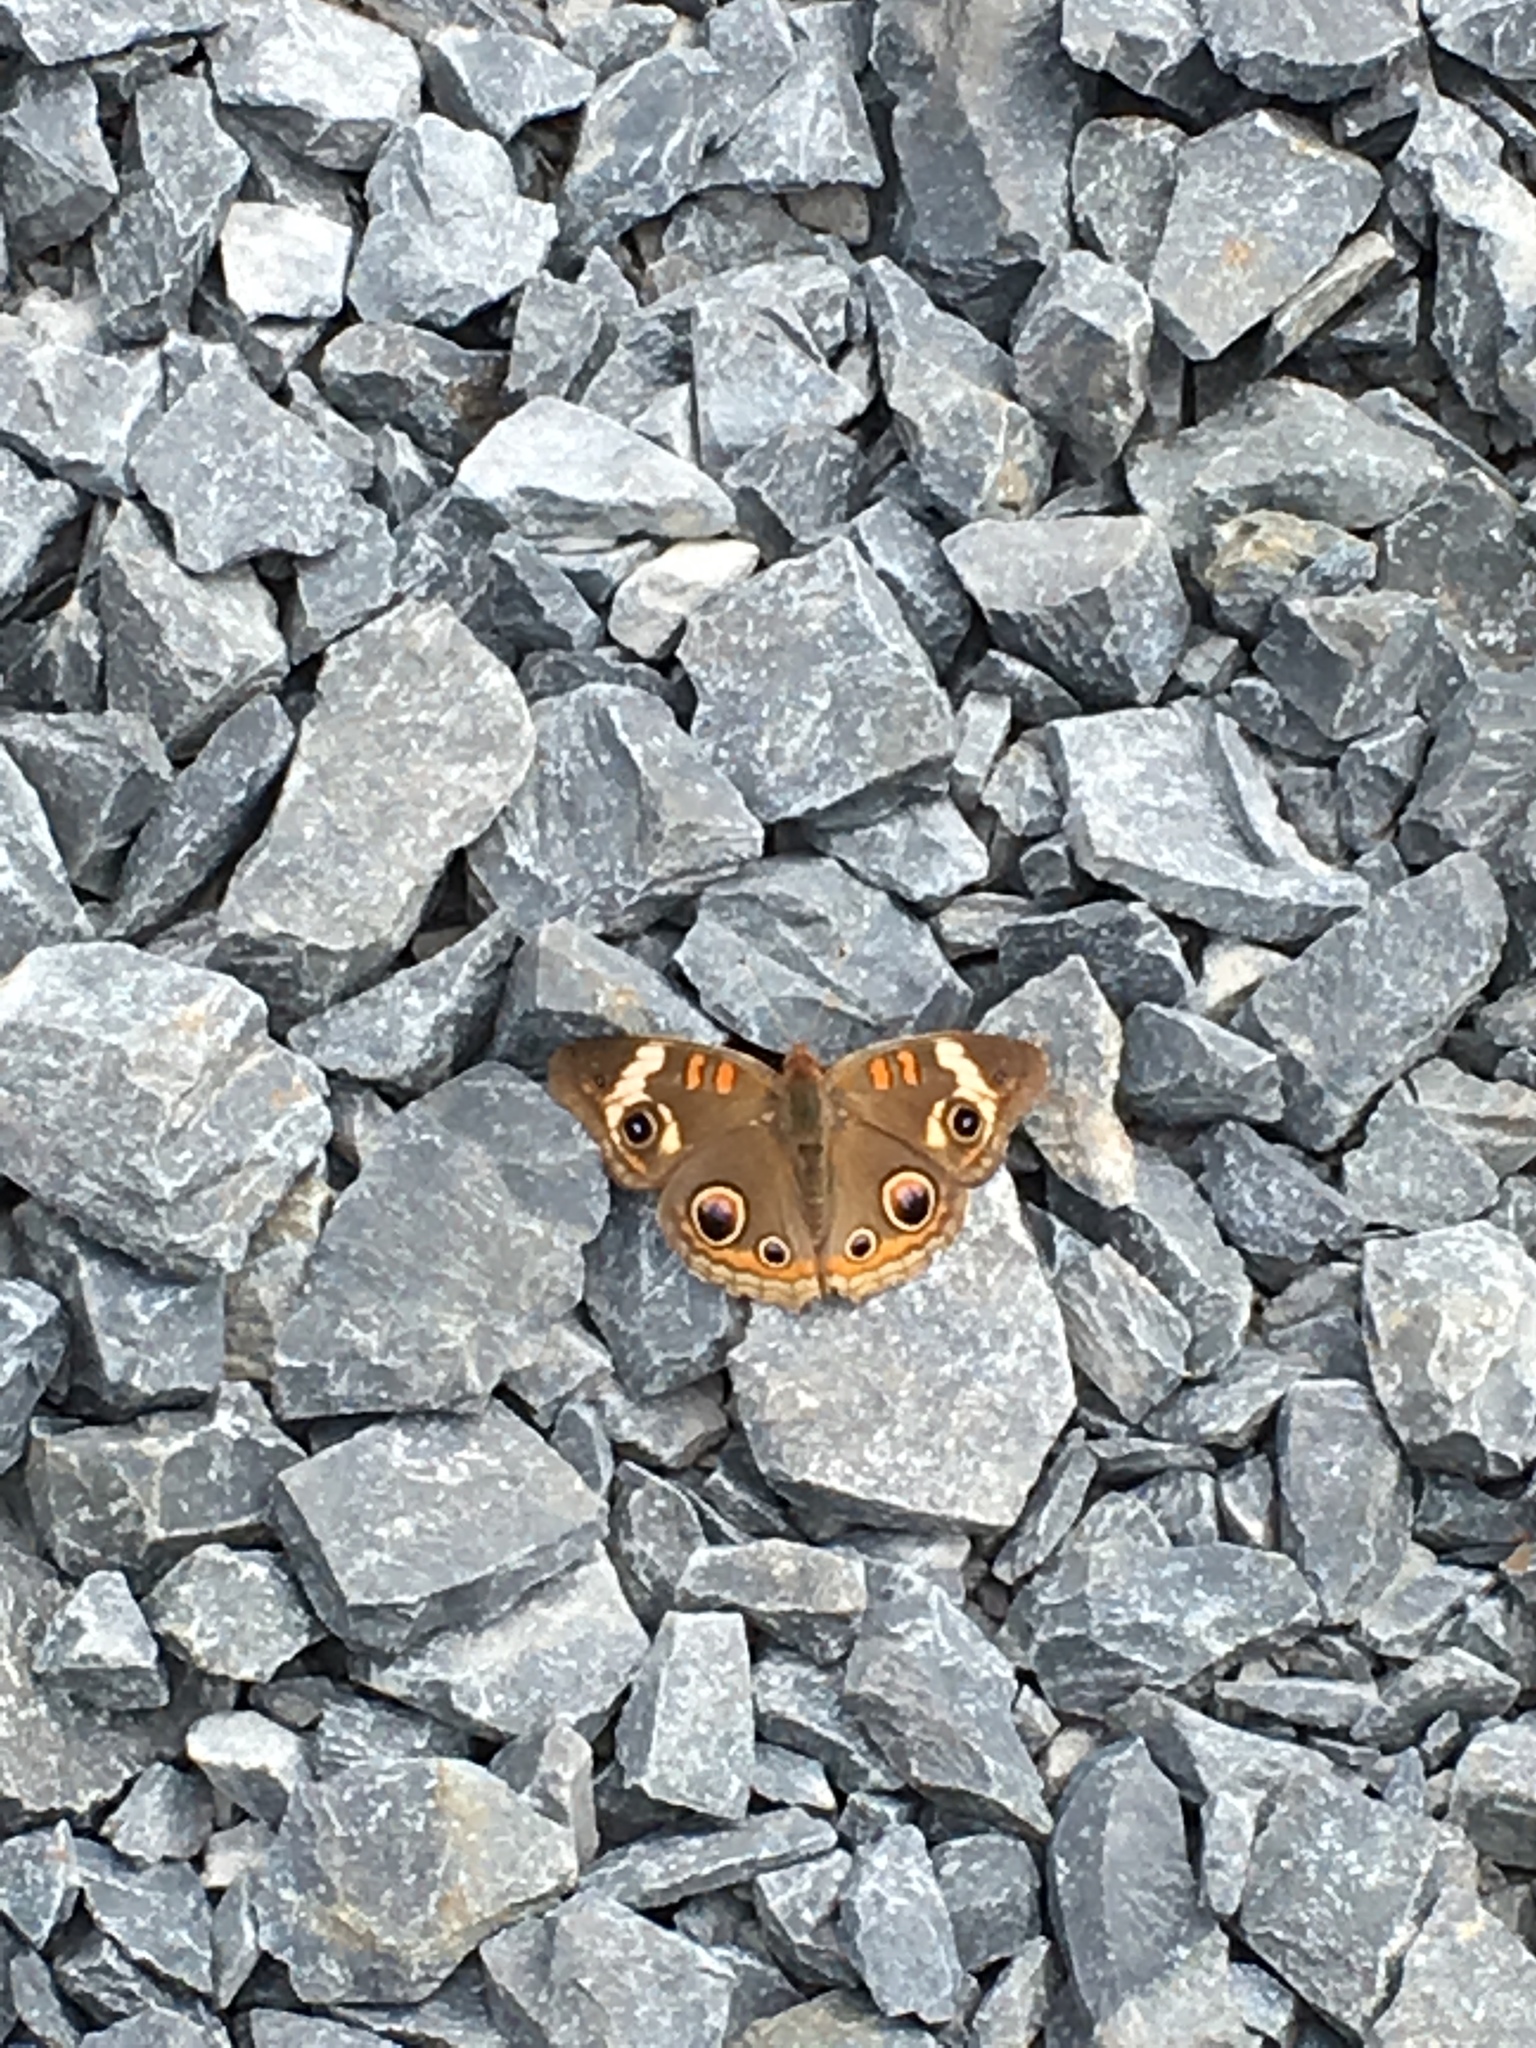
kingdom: Animalia
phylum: Arthropoda
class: Insecta
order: Lepidoptera
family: Nymphalidae
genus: Junonia
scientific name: Junonia coenia
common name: Common buckeye
